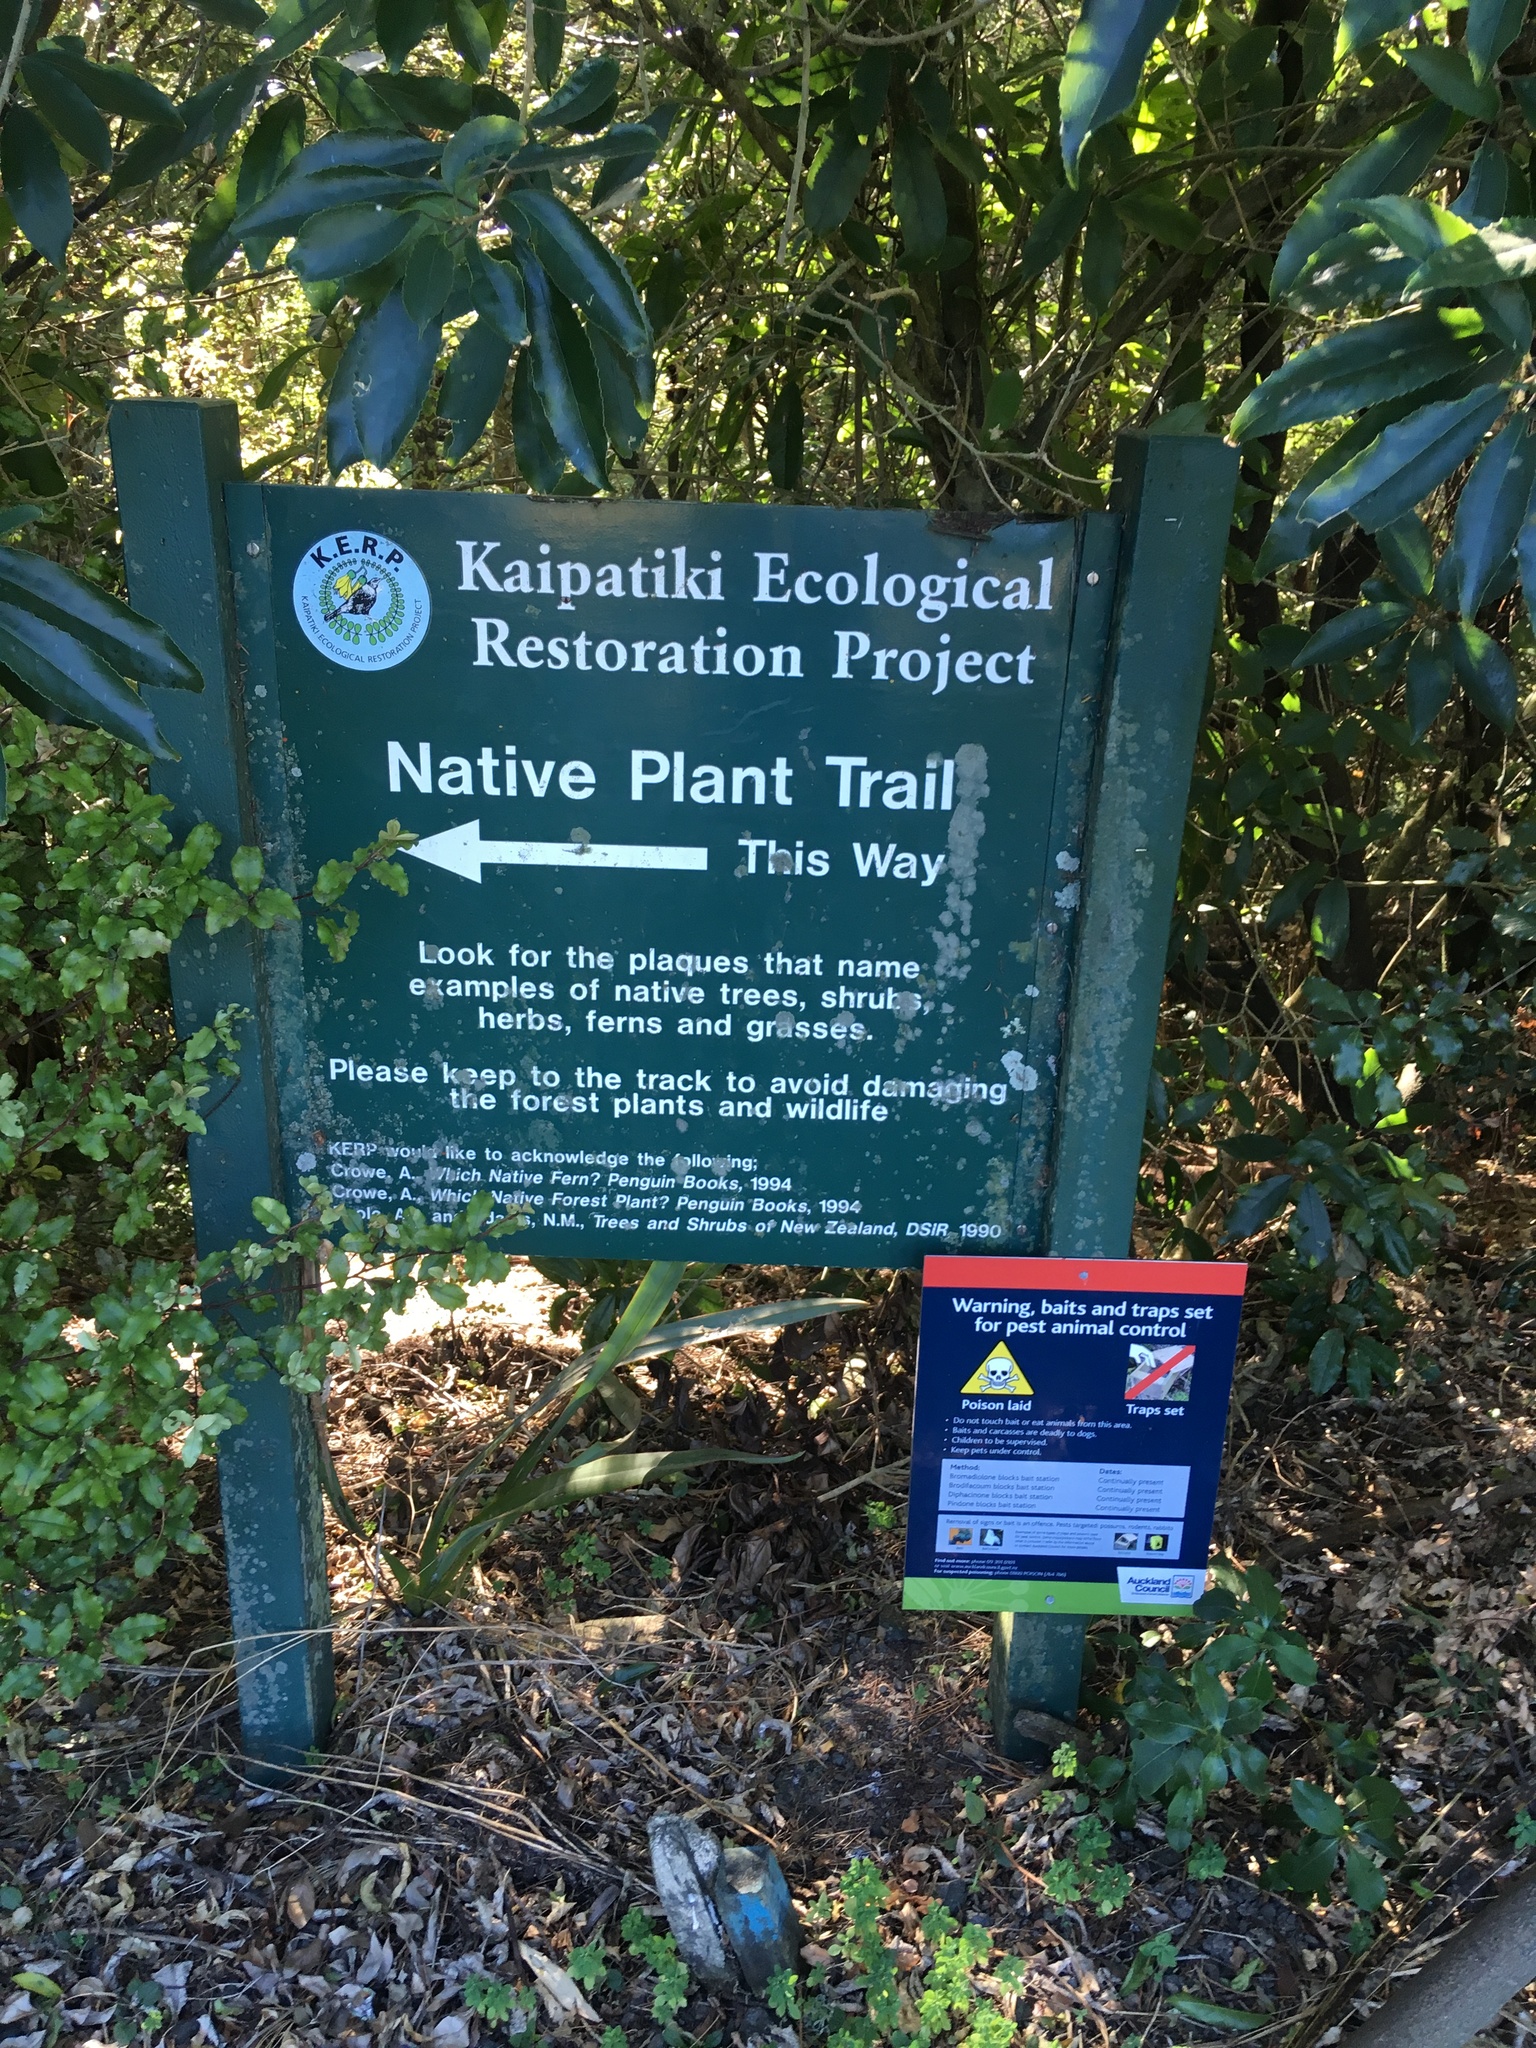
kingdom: Plantae
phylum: Tracheophyta
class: Liliopsida
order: Poales
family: Poaceae
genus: Cenchrus
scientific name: Cenchrus clandestinus
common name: Kikuyugrass
